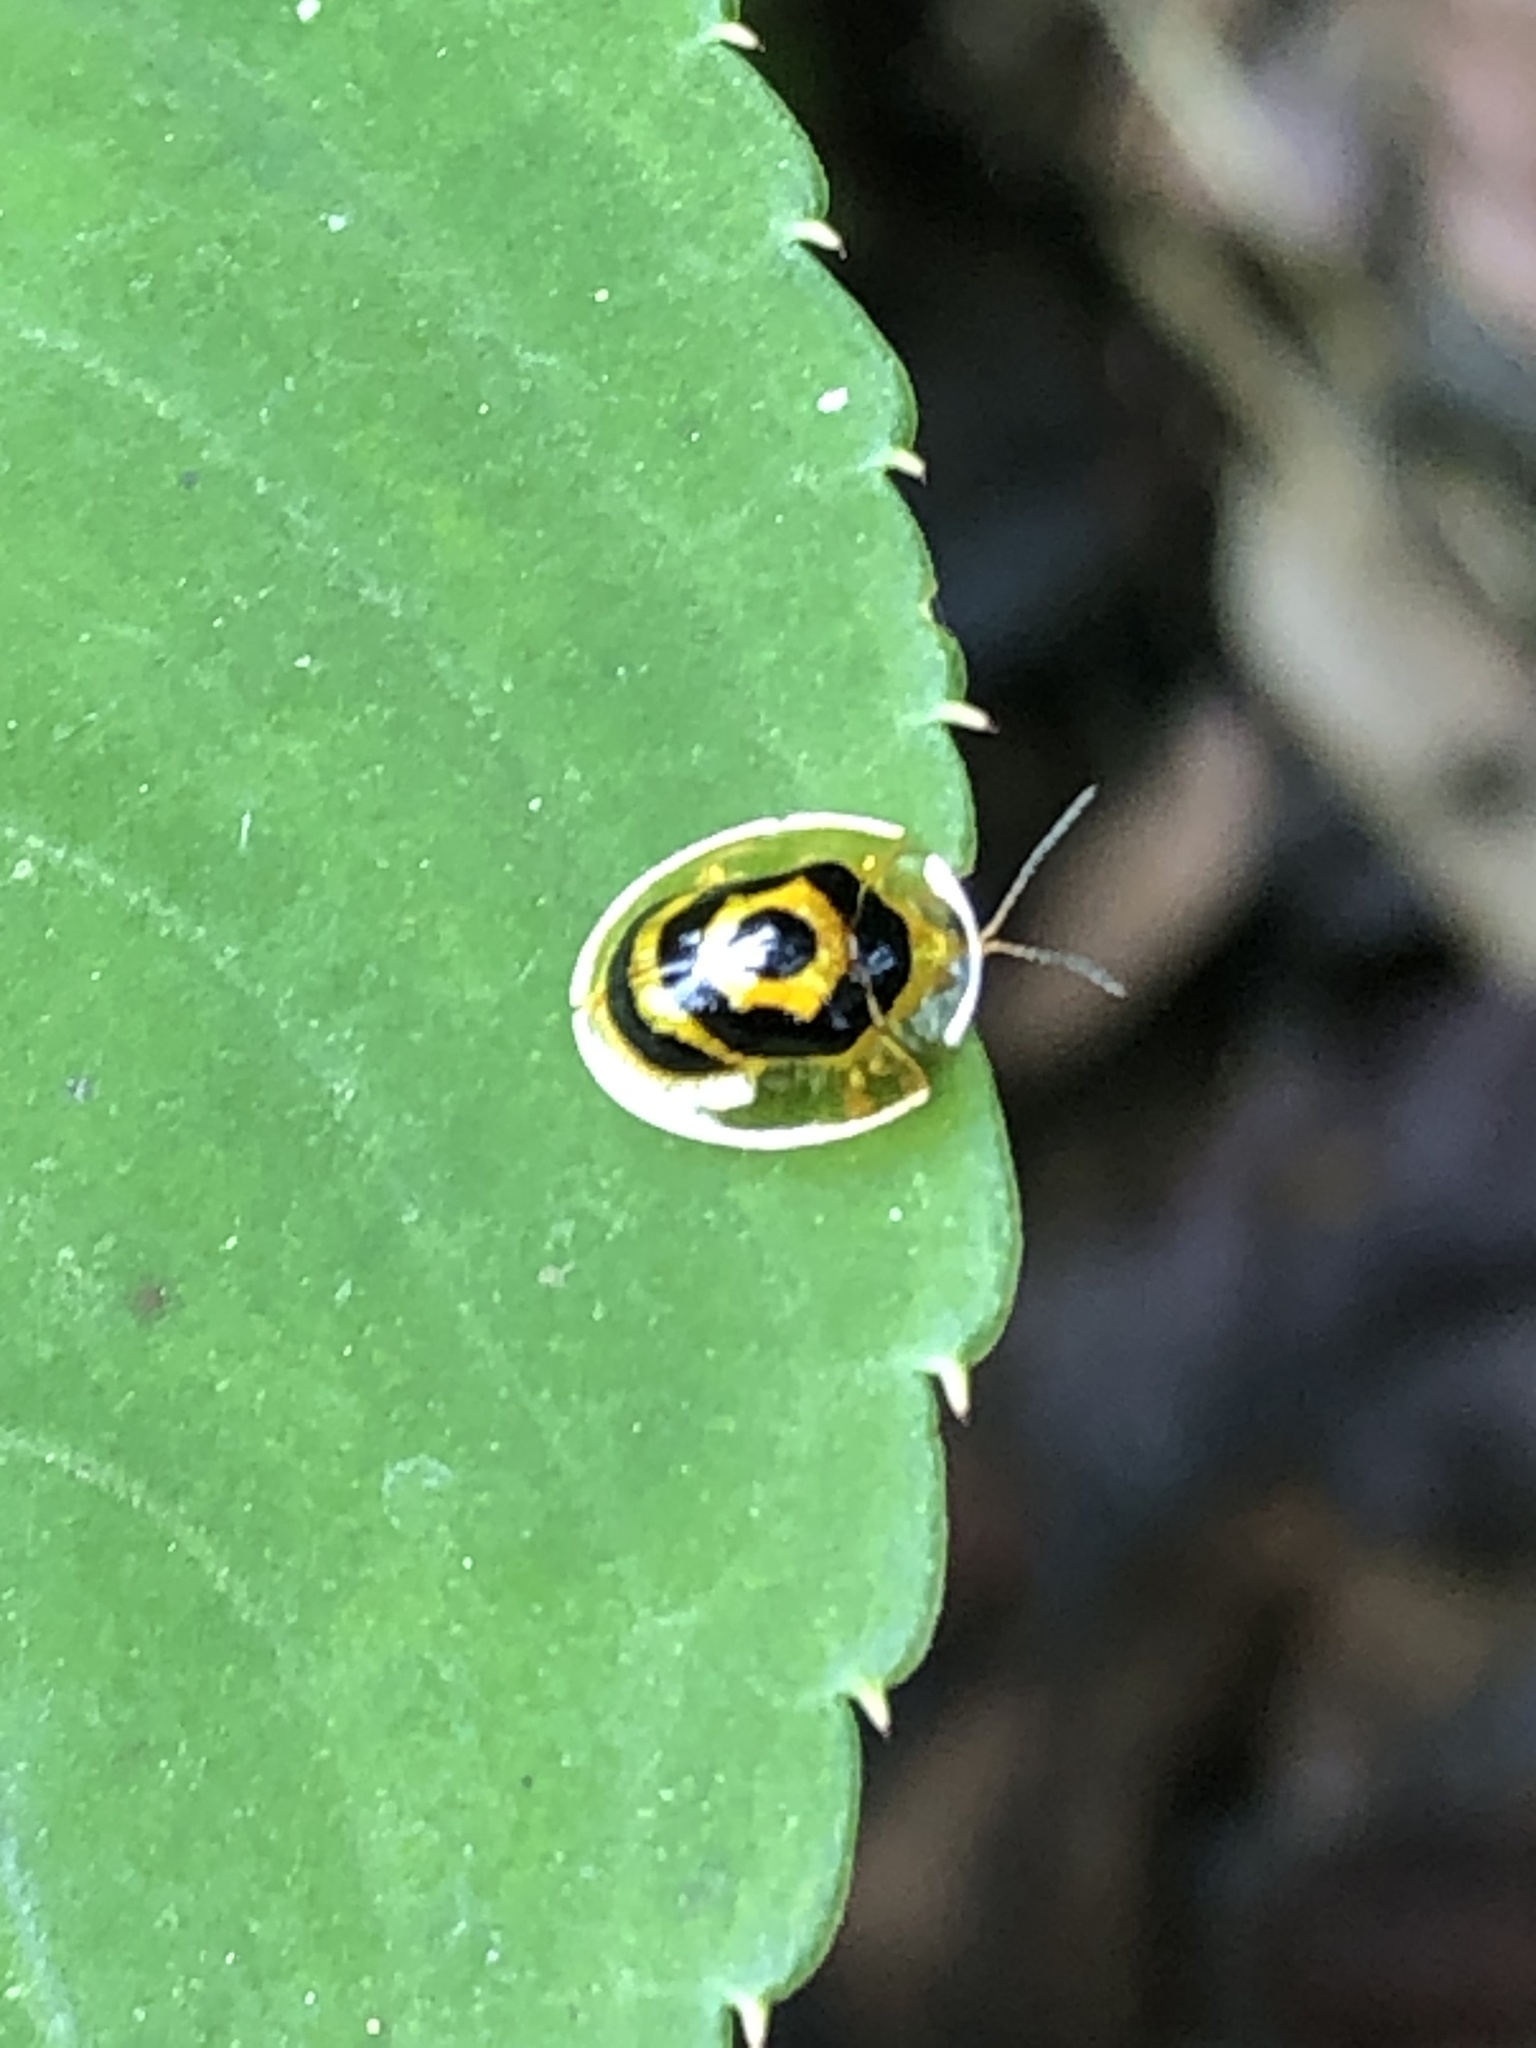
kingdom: Animalia
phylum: Arthropoda
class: Insecta
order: Coleoptera
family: Chrysomelidae
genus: Ischnocodia
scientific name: Ischnocodia annulus
